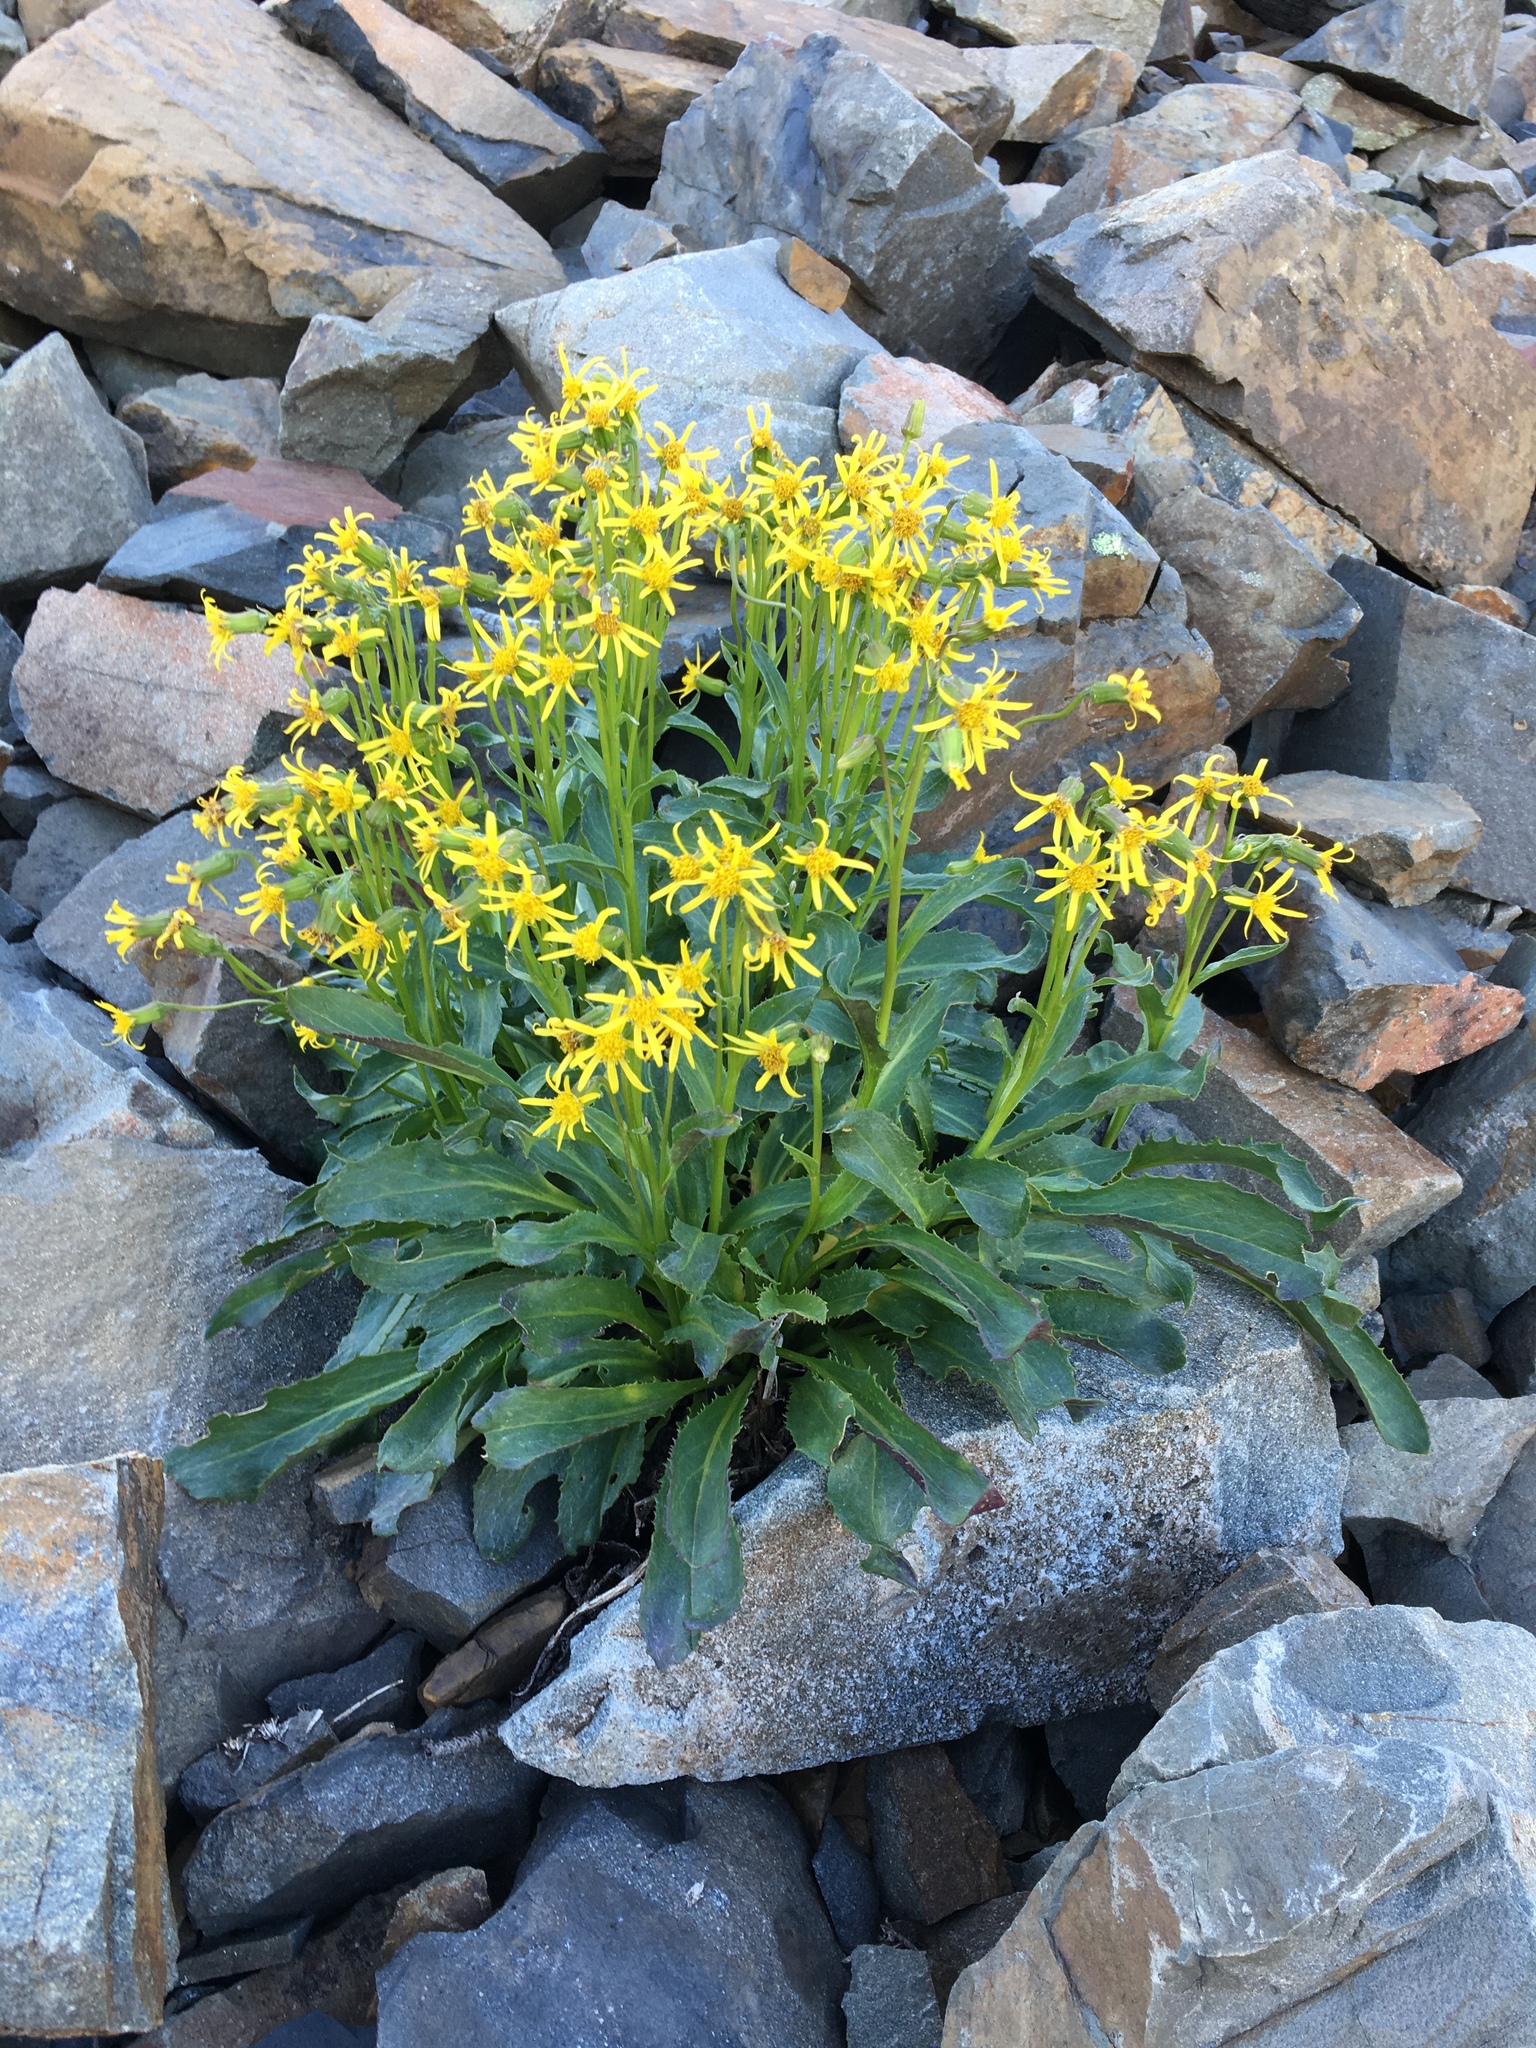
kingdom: Plantae
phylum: Tracheophyta
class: Magnoliopsida
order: Asterales
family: Asteraceae
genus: Senecio
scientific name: Senecio elmeri
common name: Elmer's butterweed
